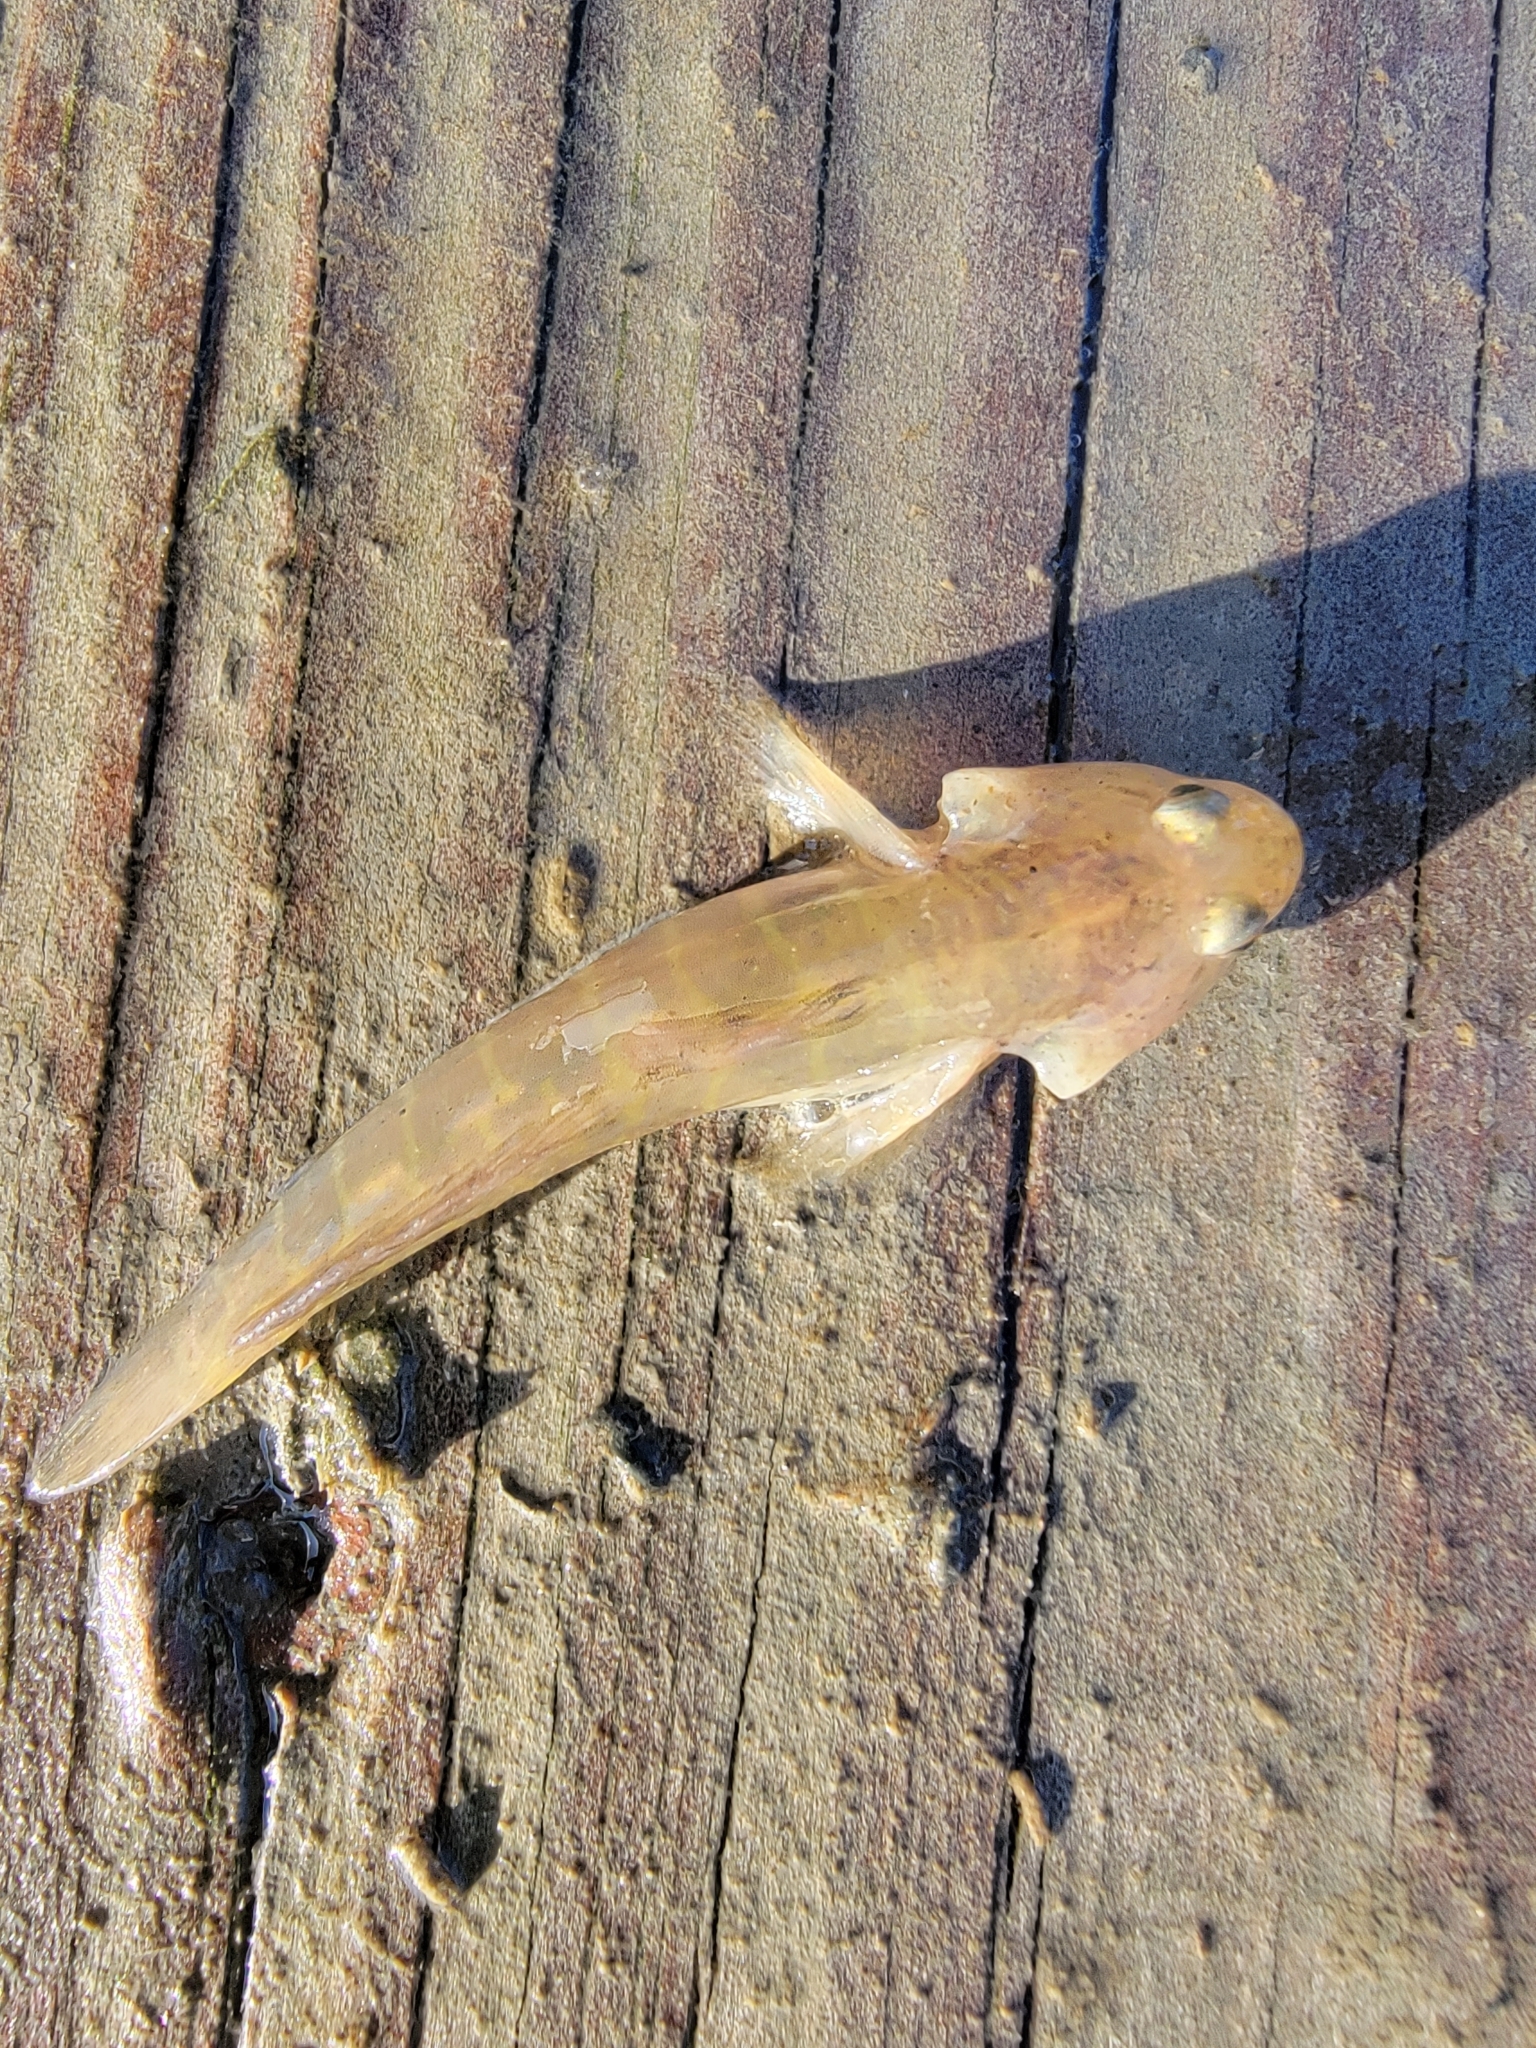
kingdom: Animalia
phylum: Chordata
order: Perciformes
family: Gobiidae
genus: Gobiosoma
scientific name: Gobiosoma bosc
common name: Naked goby
